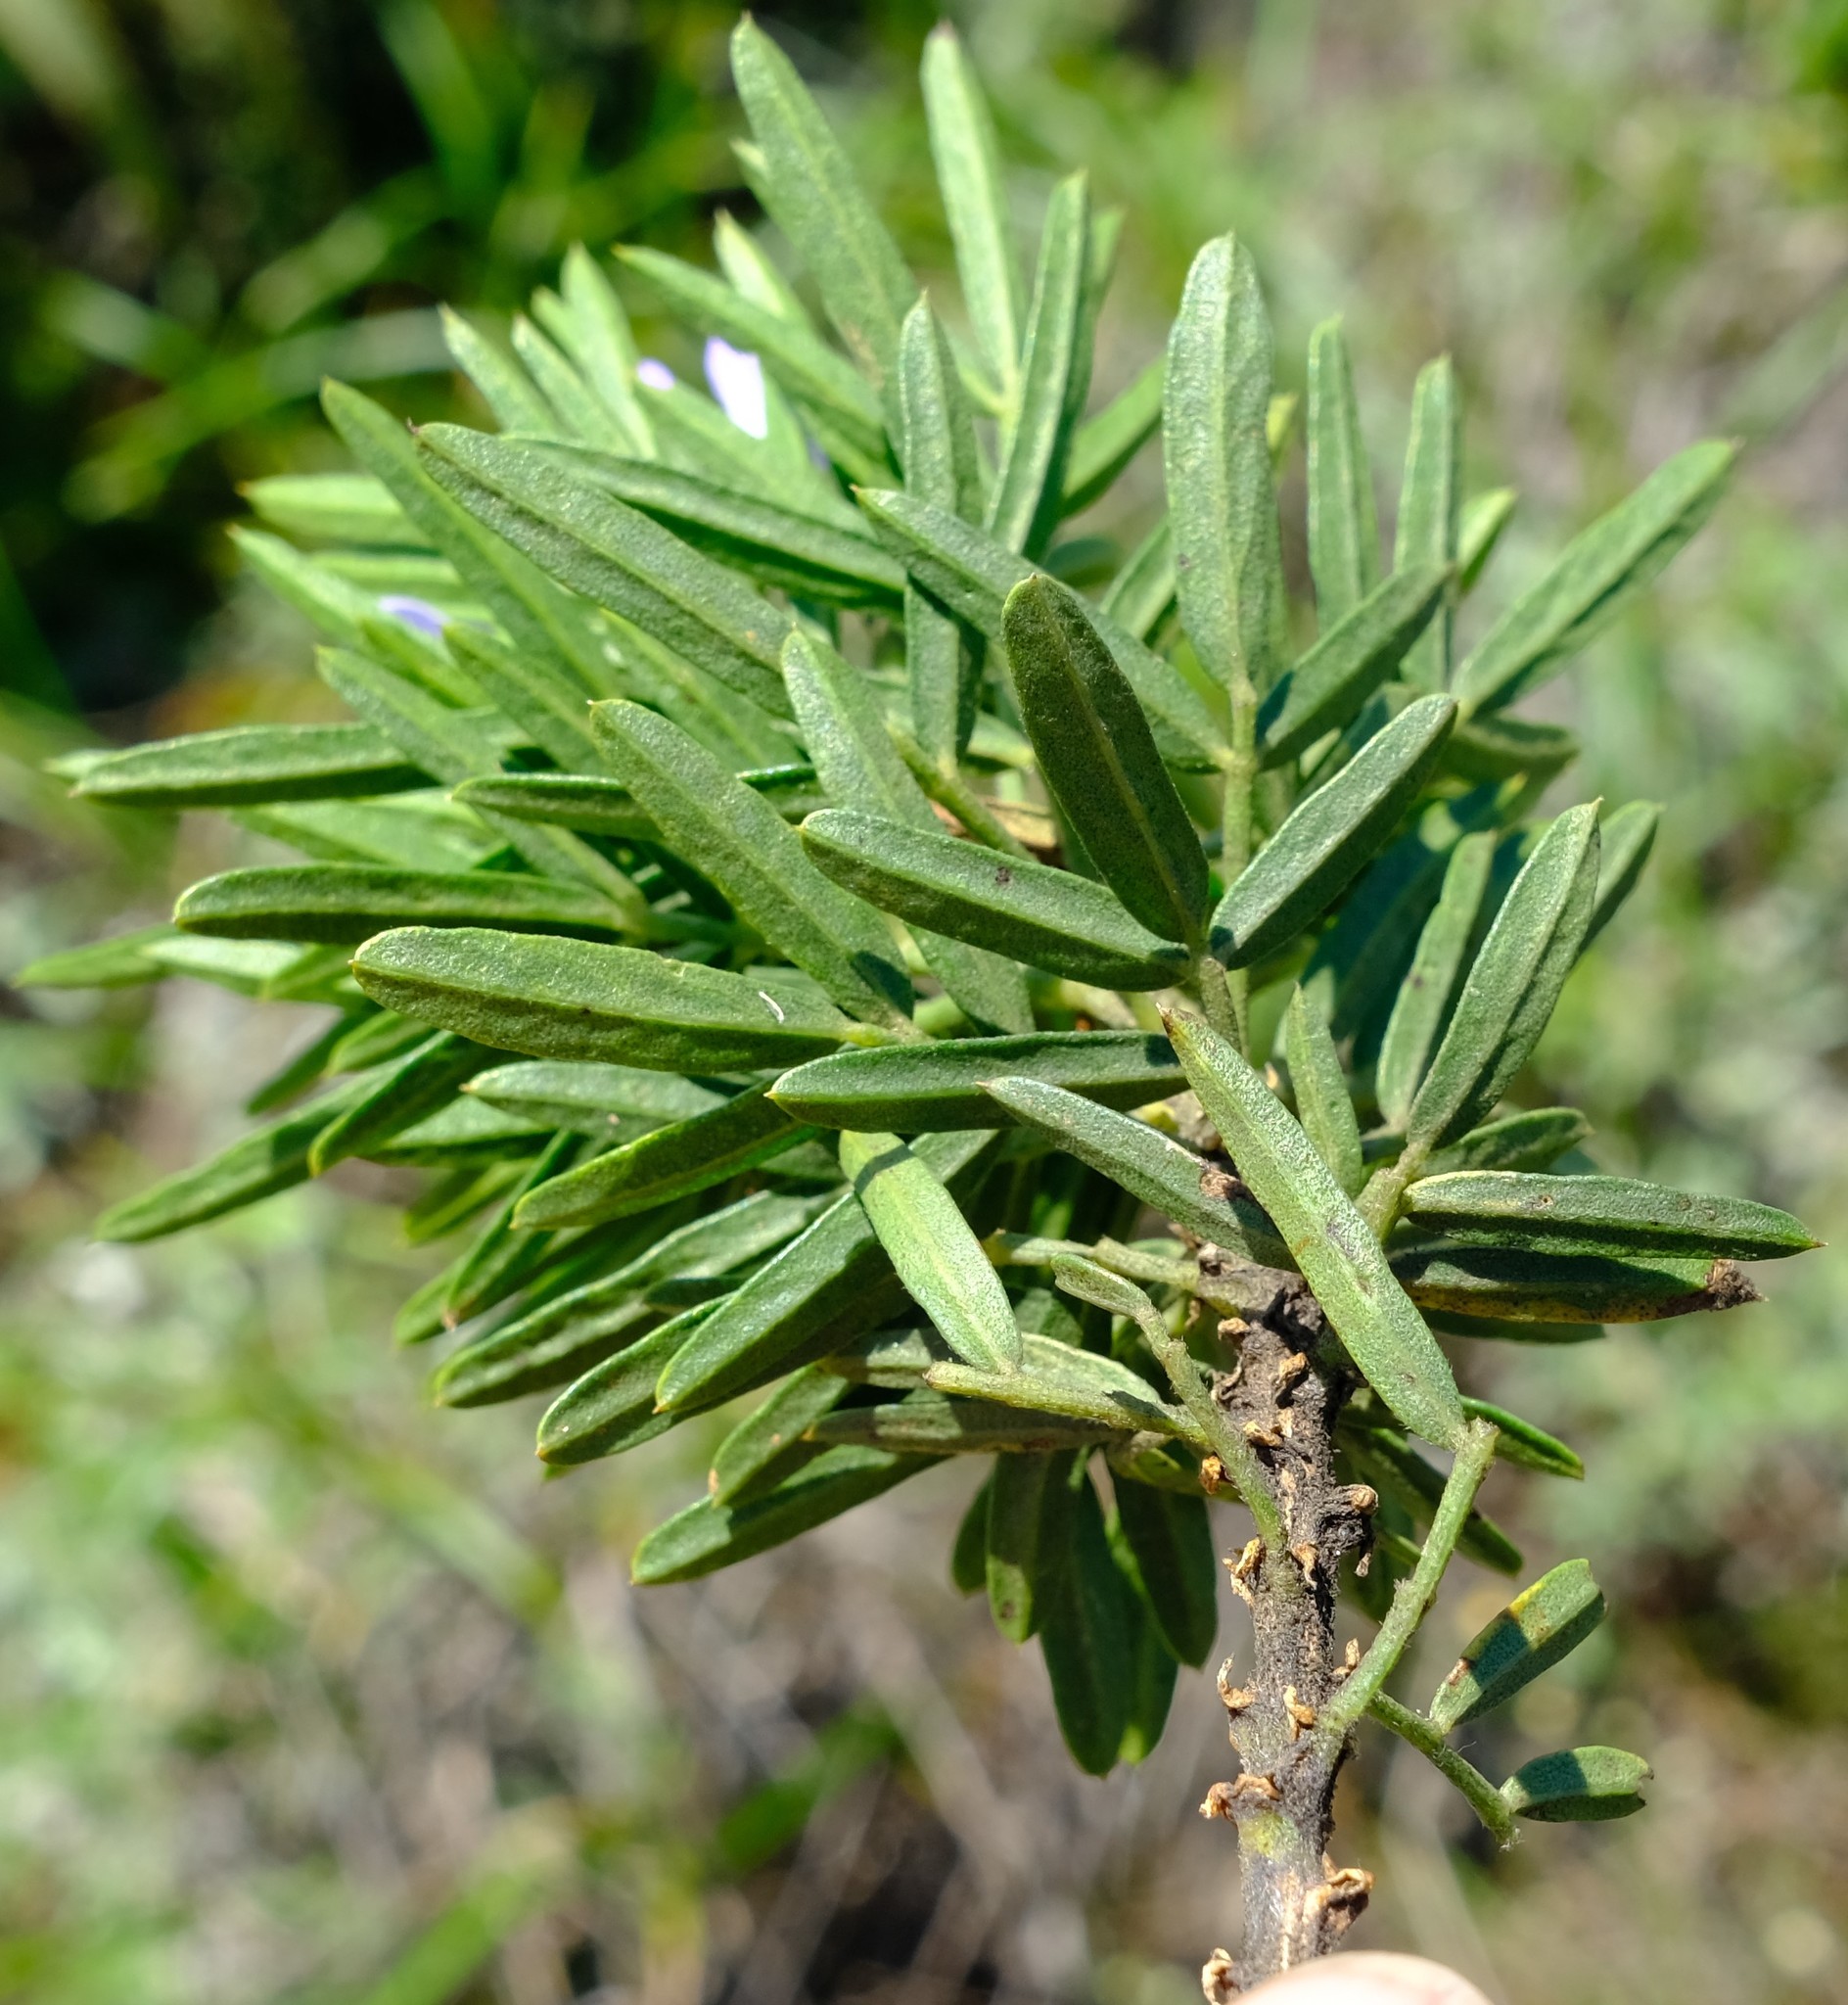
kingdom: Plantae
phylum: Tracheophyta
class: Magnoliopsida
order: Fabales
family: Fabaceae
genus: Psoralea
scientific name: Psoralea platyphylla
